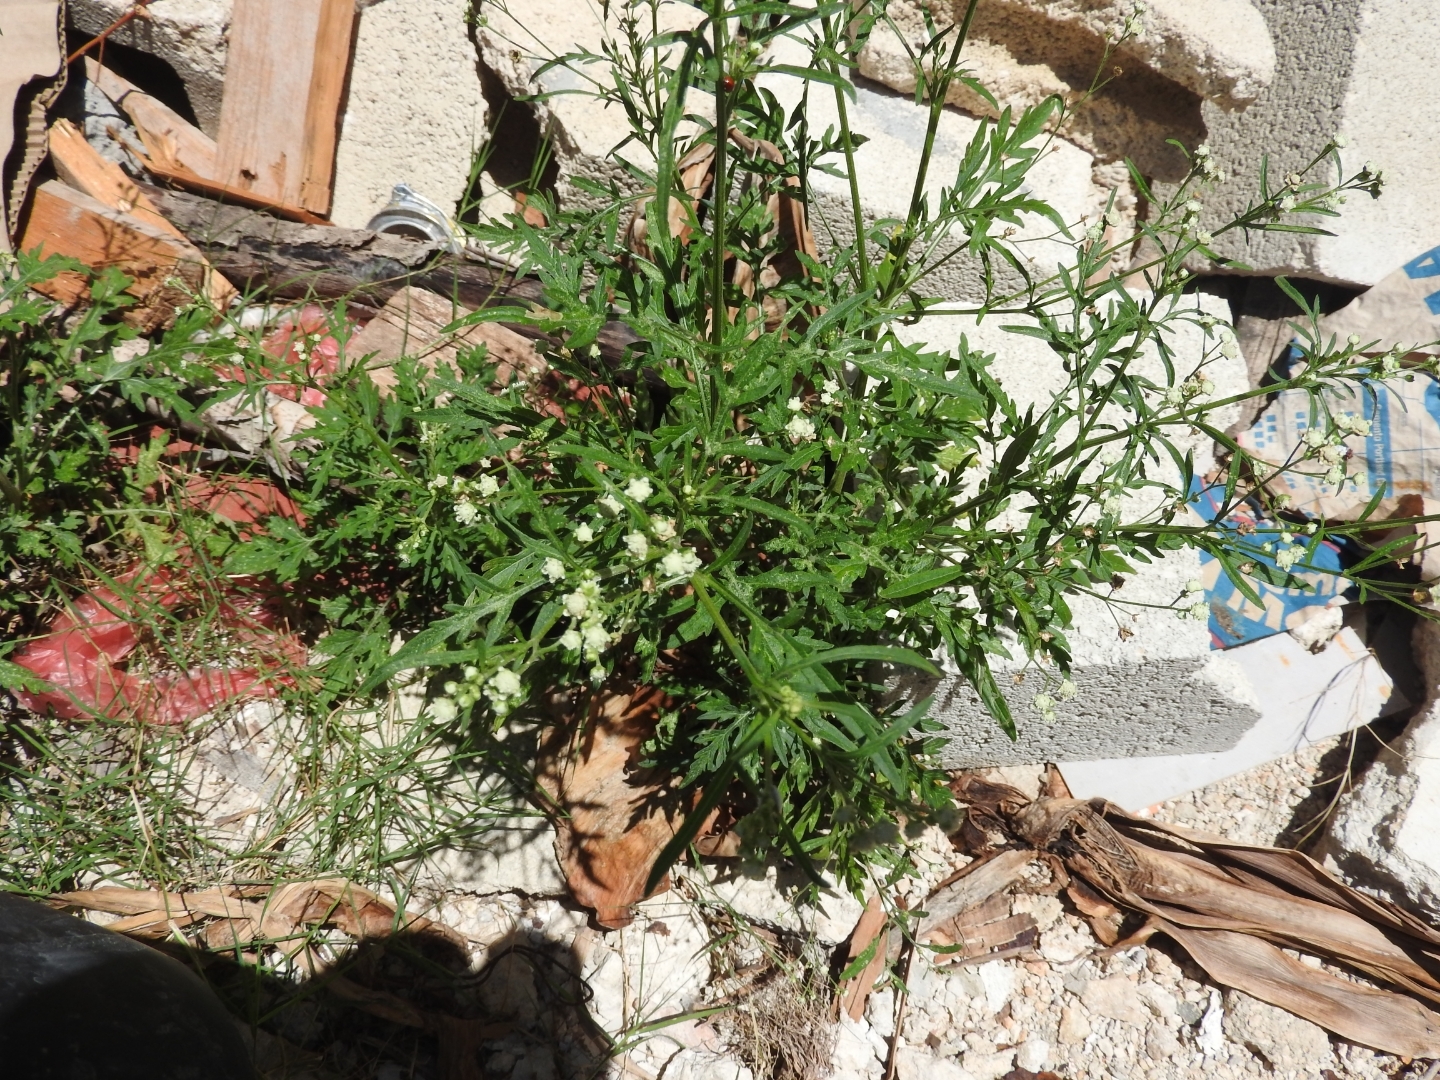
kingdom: Plantae
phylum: Tracheophyta
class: Magnoliopsida
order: Asterales
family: Asteraceae
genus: Parthenium
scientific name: Parthenium hysterophorus
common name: Santa maria feverfew
